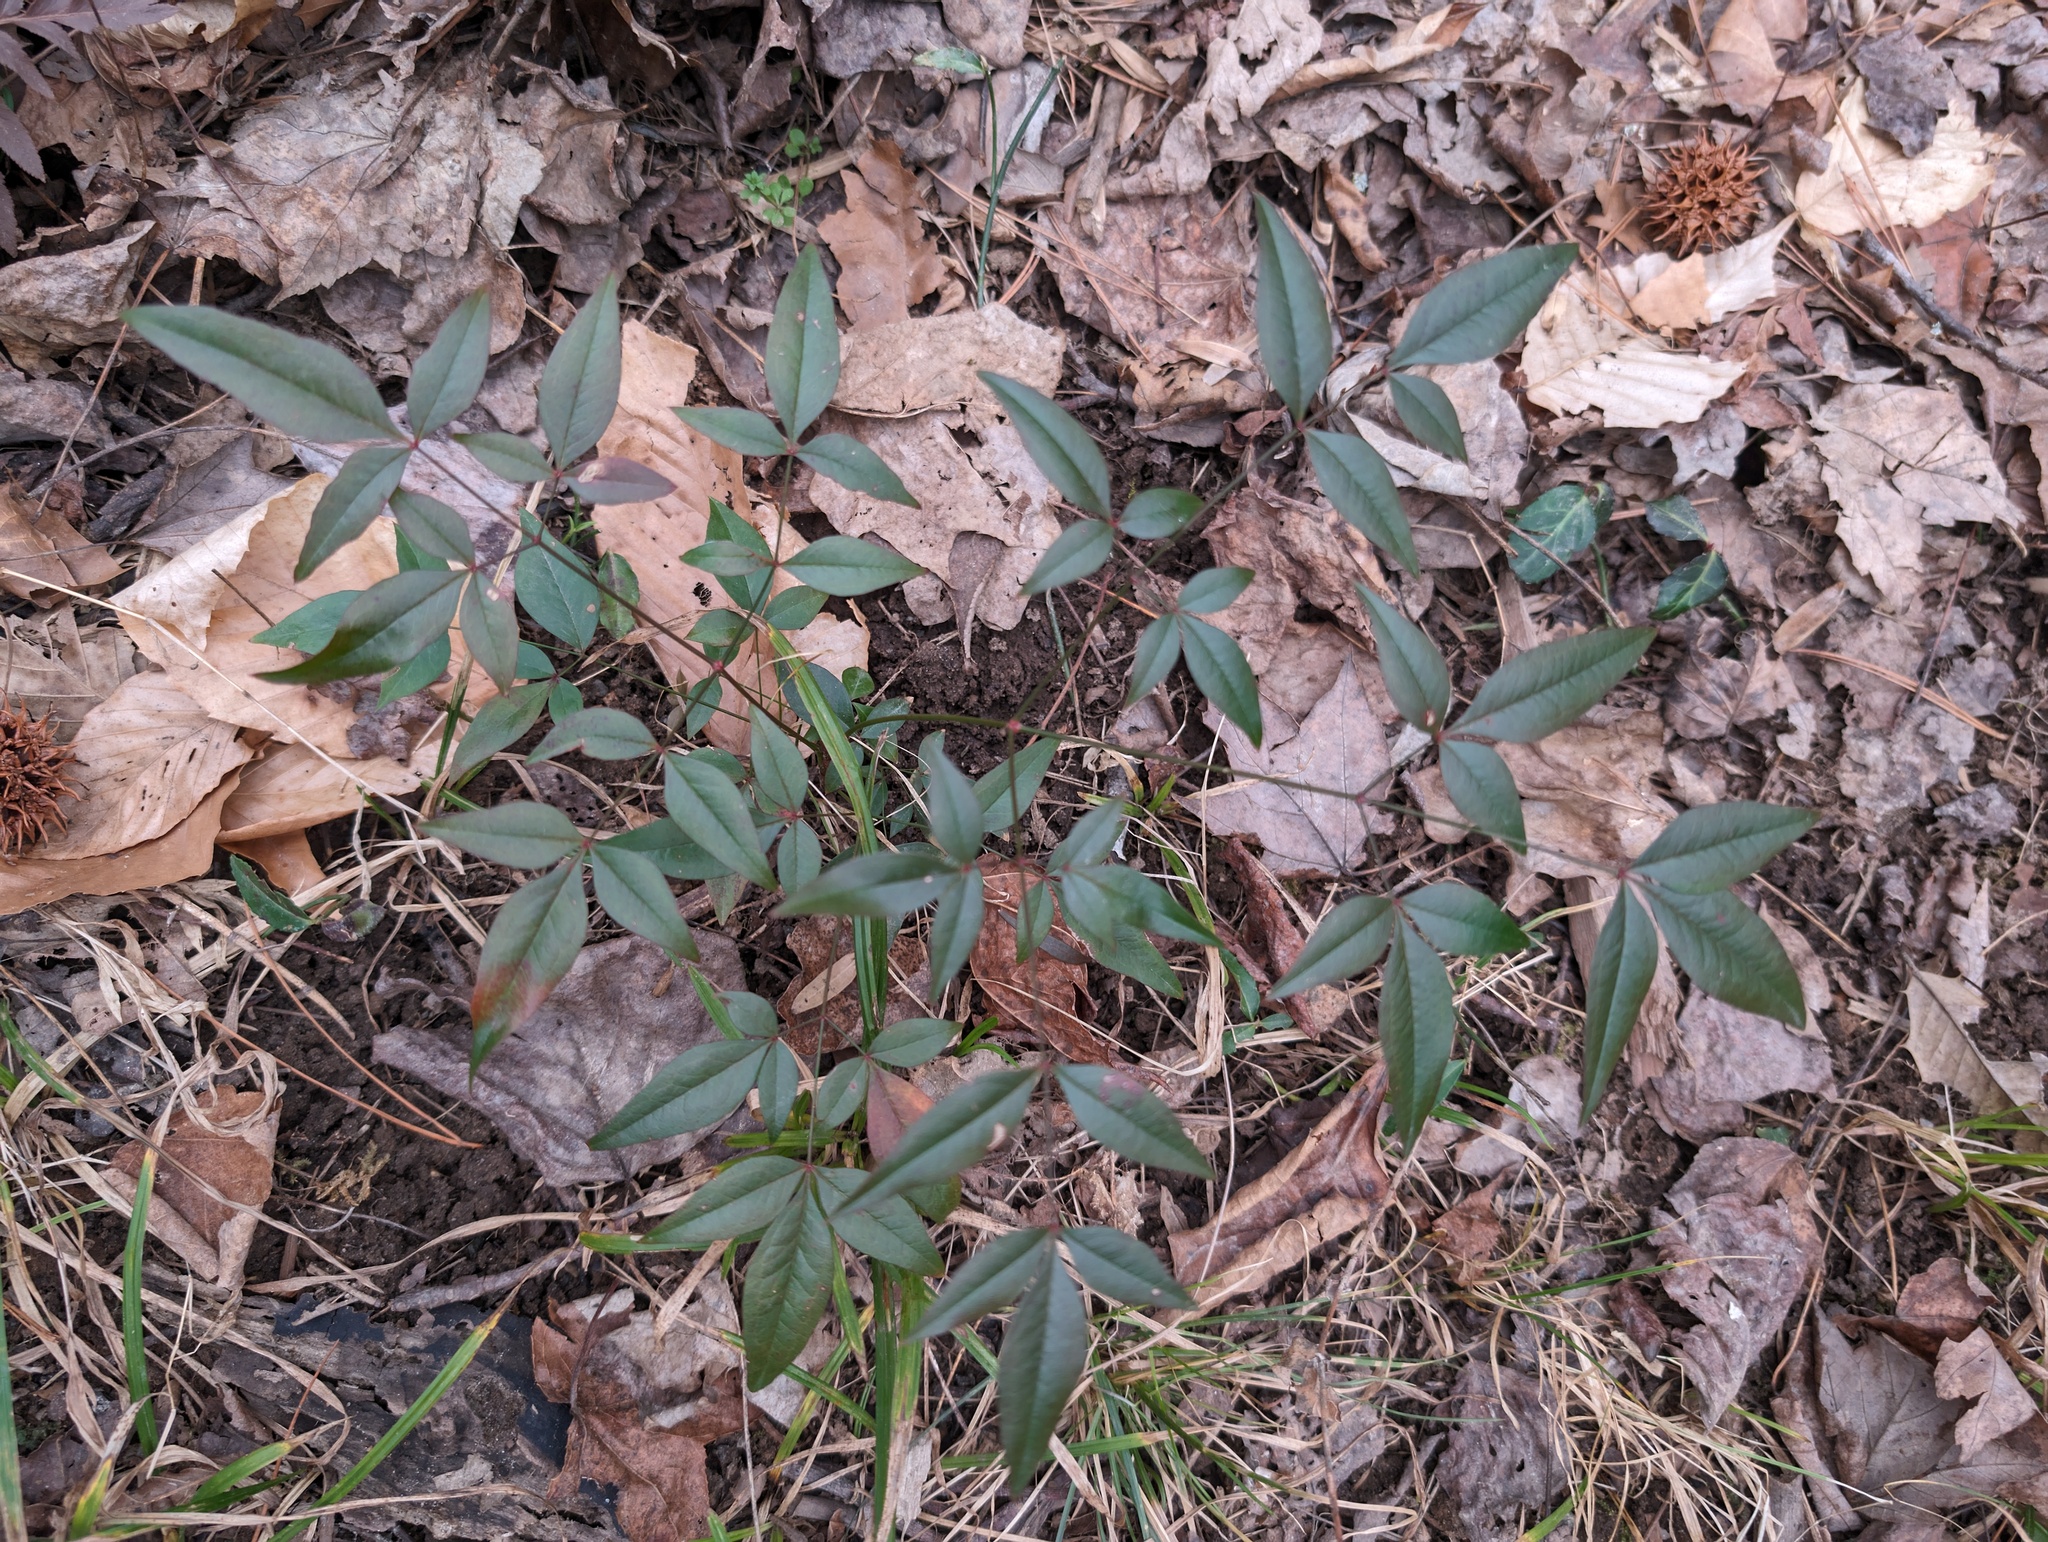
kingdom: Plantae
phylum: Tracheophyta
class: Magnoliopsida
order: Ranunculales
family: Berberidaceae
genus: Nandina
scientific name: Nandina domestica
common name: Sacred bamboo
